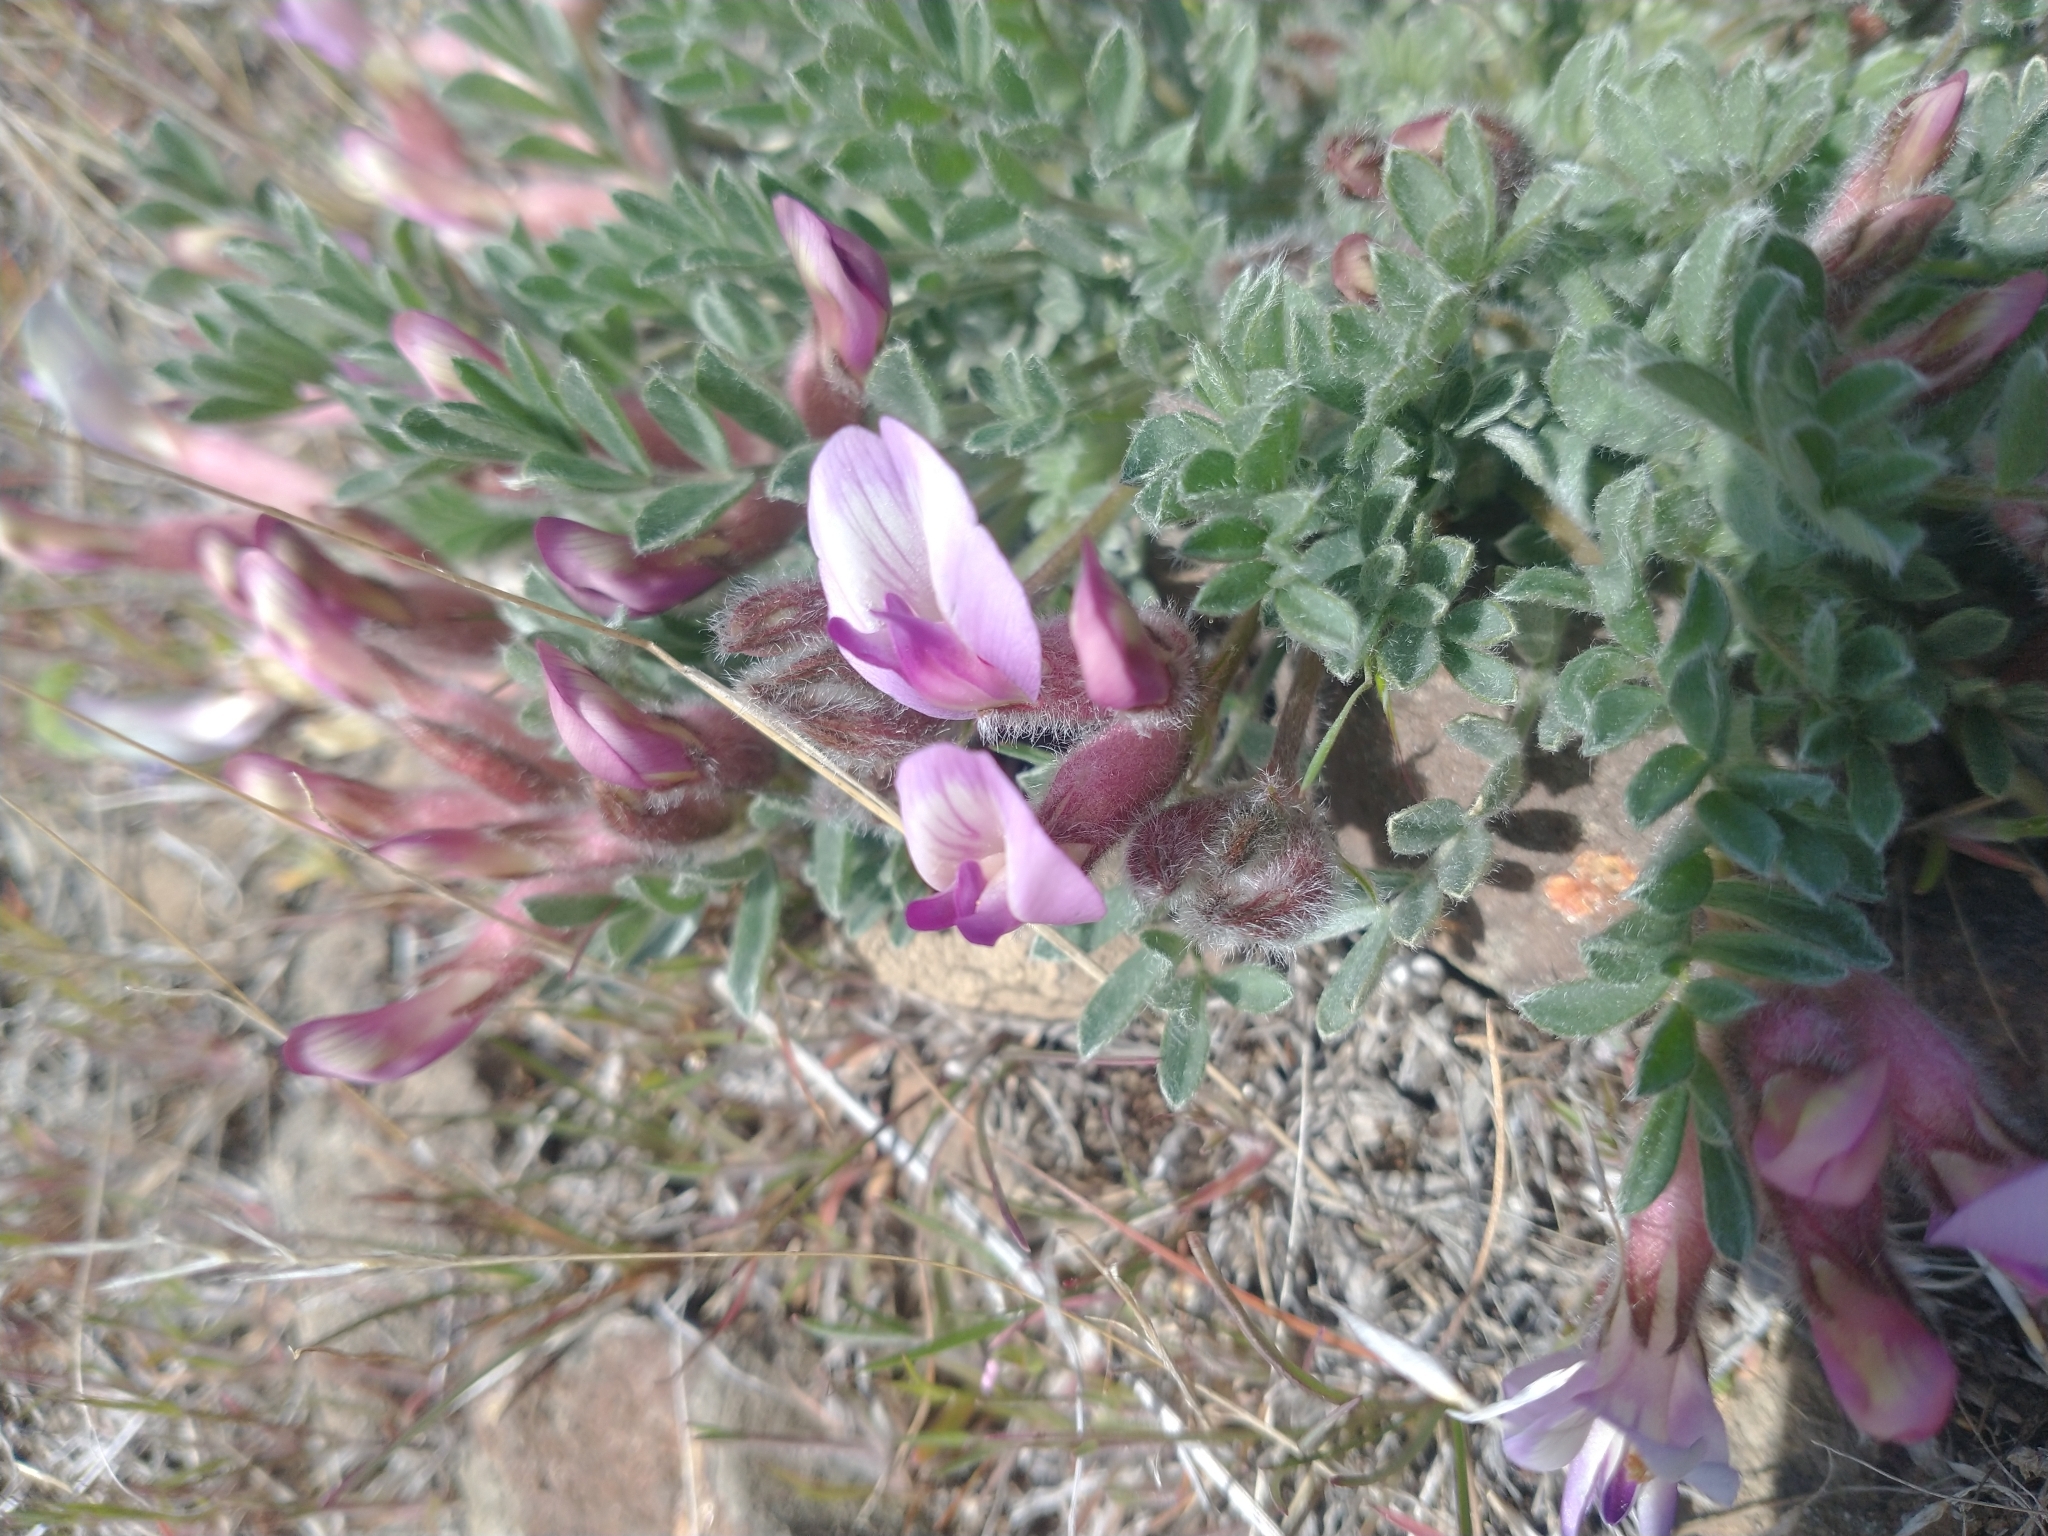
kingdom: Plantae
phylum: Tracheophyta
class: Magnoliopsida
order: Fabales
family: Fabaceae
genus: Astragalus
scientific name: Astragalus purshii
